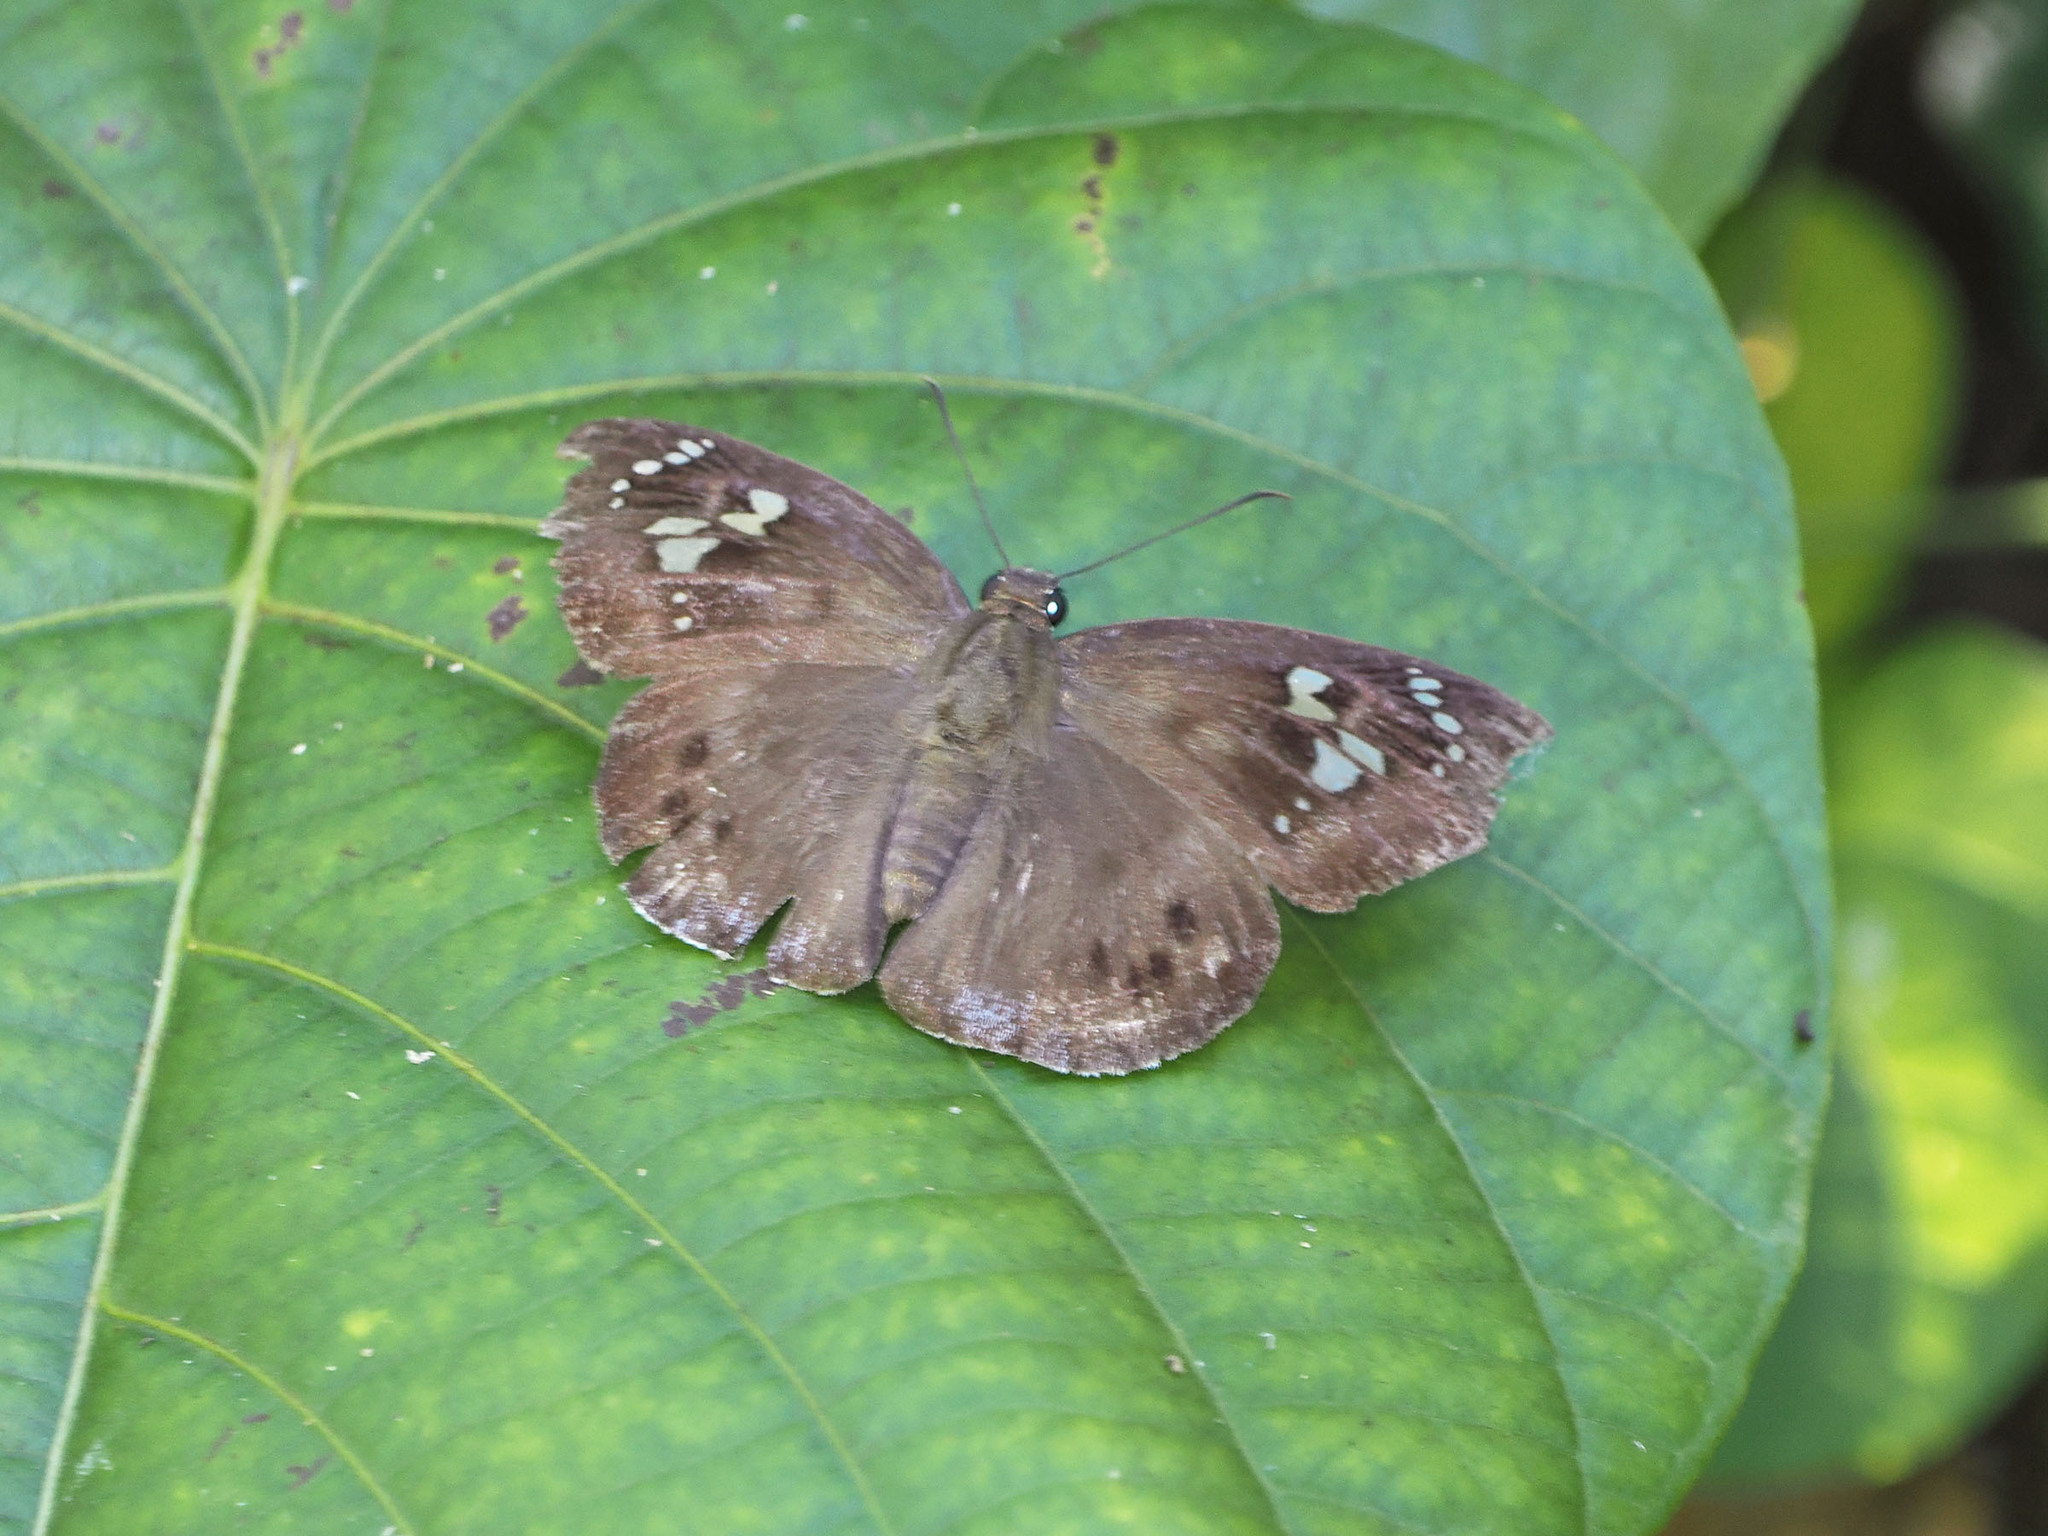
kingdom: Animalia
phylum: Arthropoda
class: Insecta
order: Lepidoptera
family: Hesperiidae
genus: Tagiades
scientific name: Tagiades japetus
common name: Pied flat
